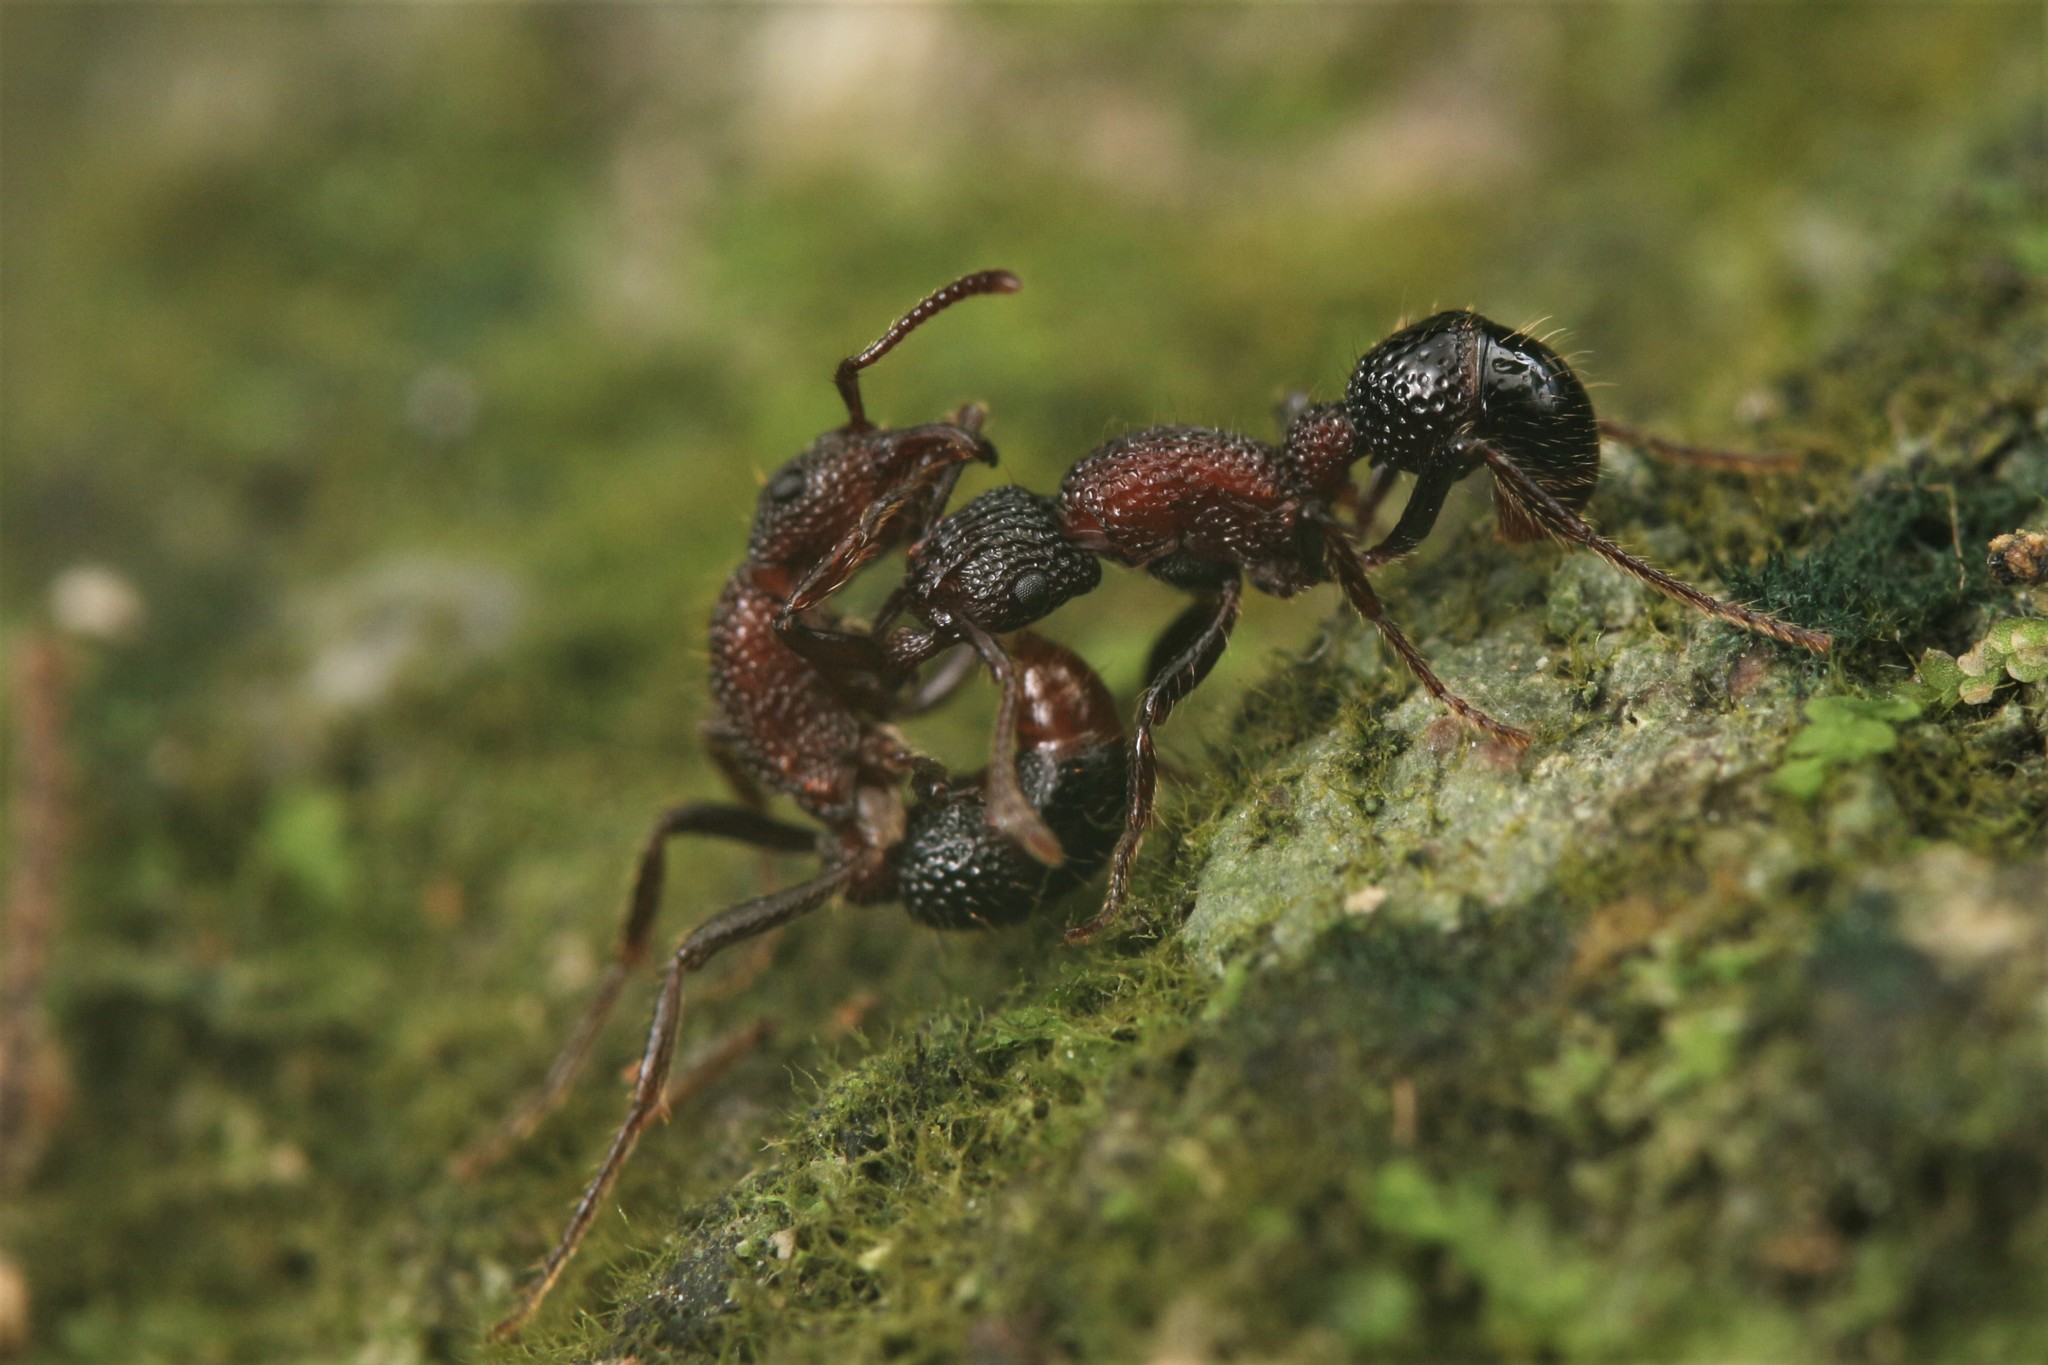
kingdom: Animalia
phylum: Arthropoda
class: Insecta
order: Hymenoptera
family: Formicidae
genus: Stictoponera
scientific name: Stictoponera bicolor
